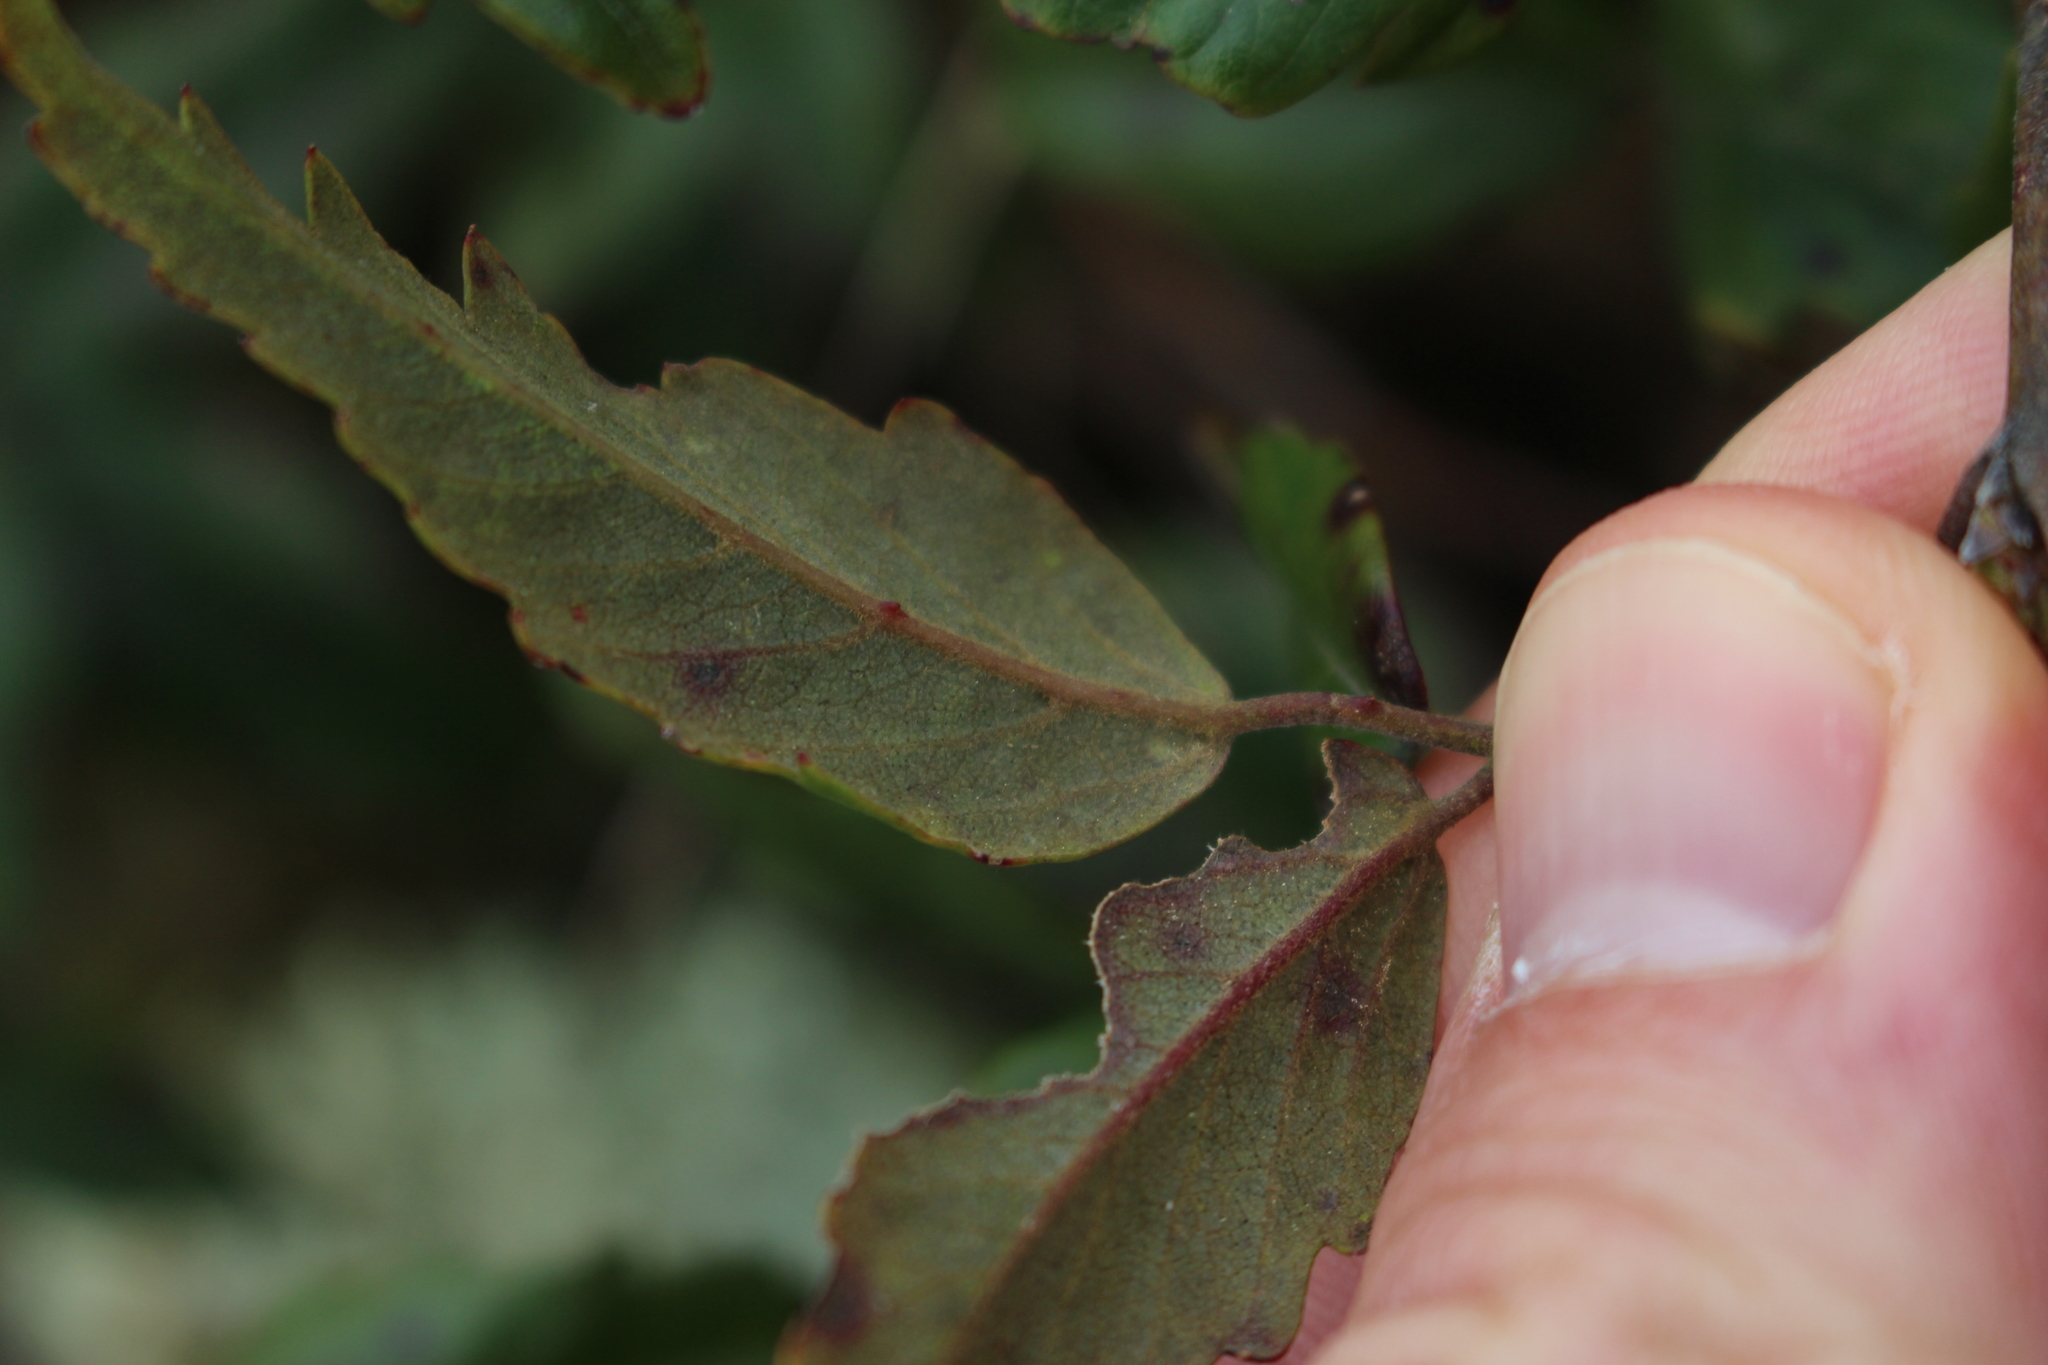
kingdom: Plantae
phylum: Tracheophyta
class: Magnoliopsida
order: Rosales
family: Rosaceae
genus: Rubus
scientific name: Rubus schmidelioides
